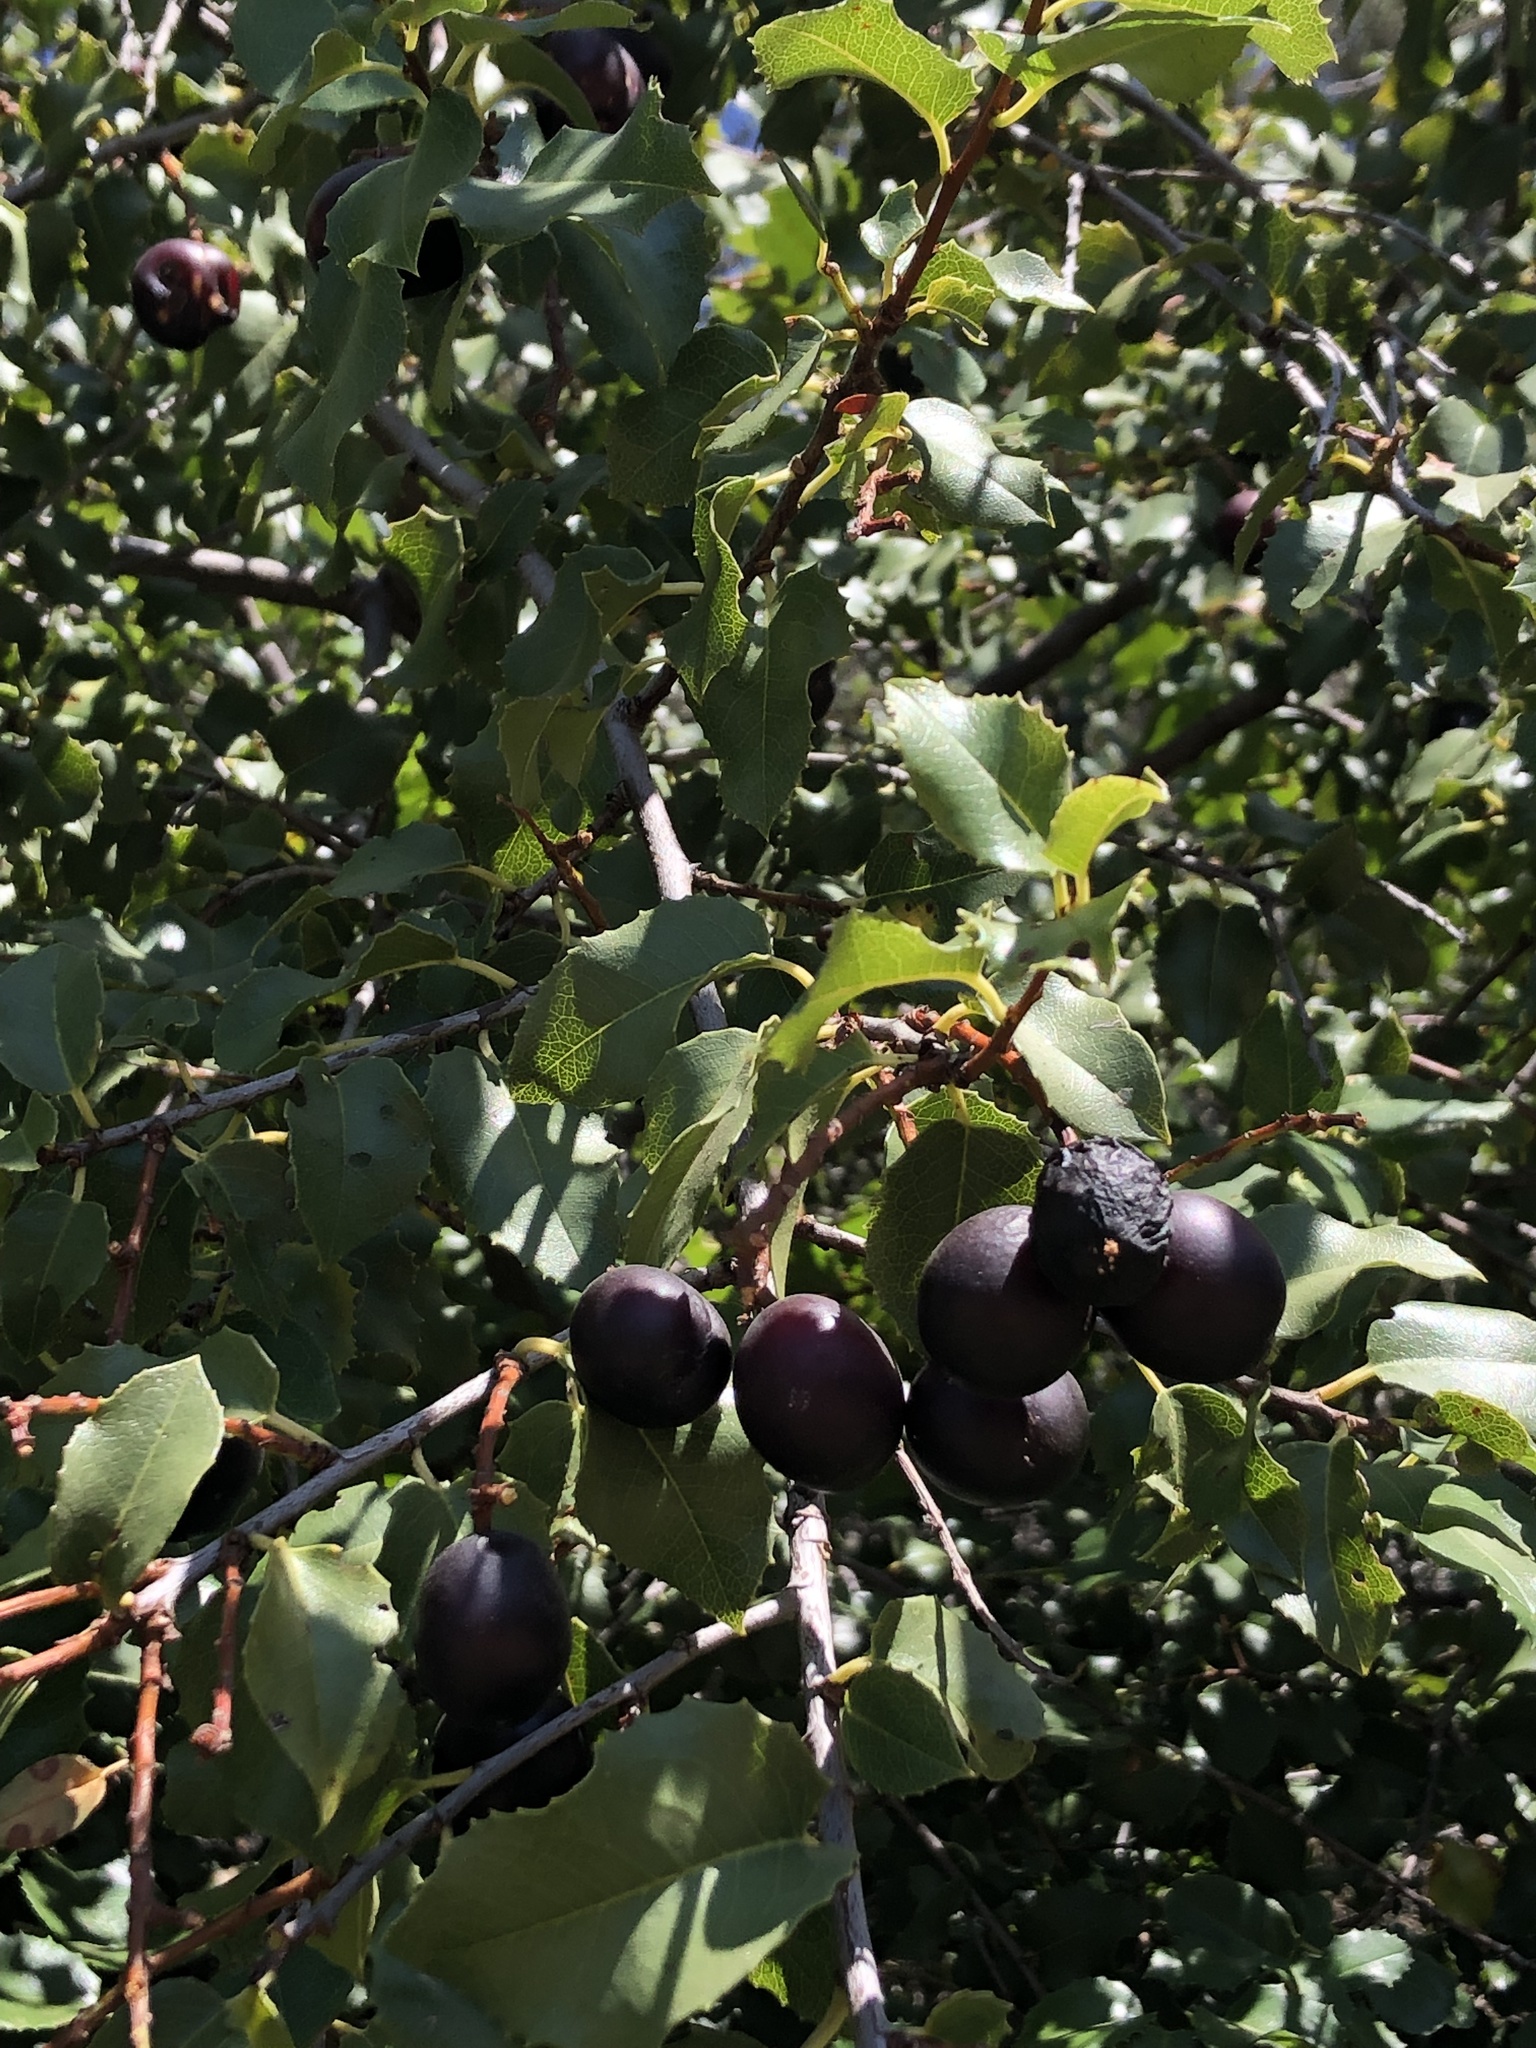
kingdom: Plantae
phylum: Tracheophyta
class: Magnoliopsida
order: Rosales
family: Rosaceae
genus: Prunus
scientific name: Prunus ilicifolia
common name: Hollyleaf cherry
